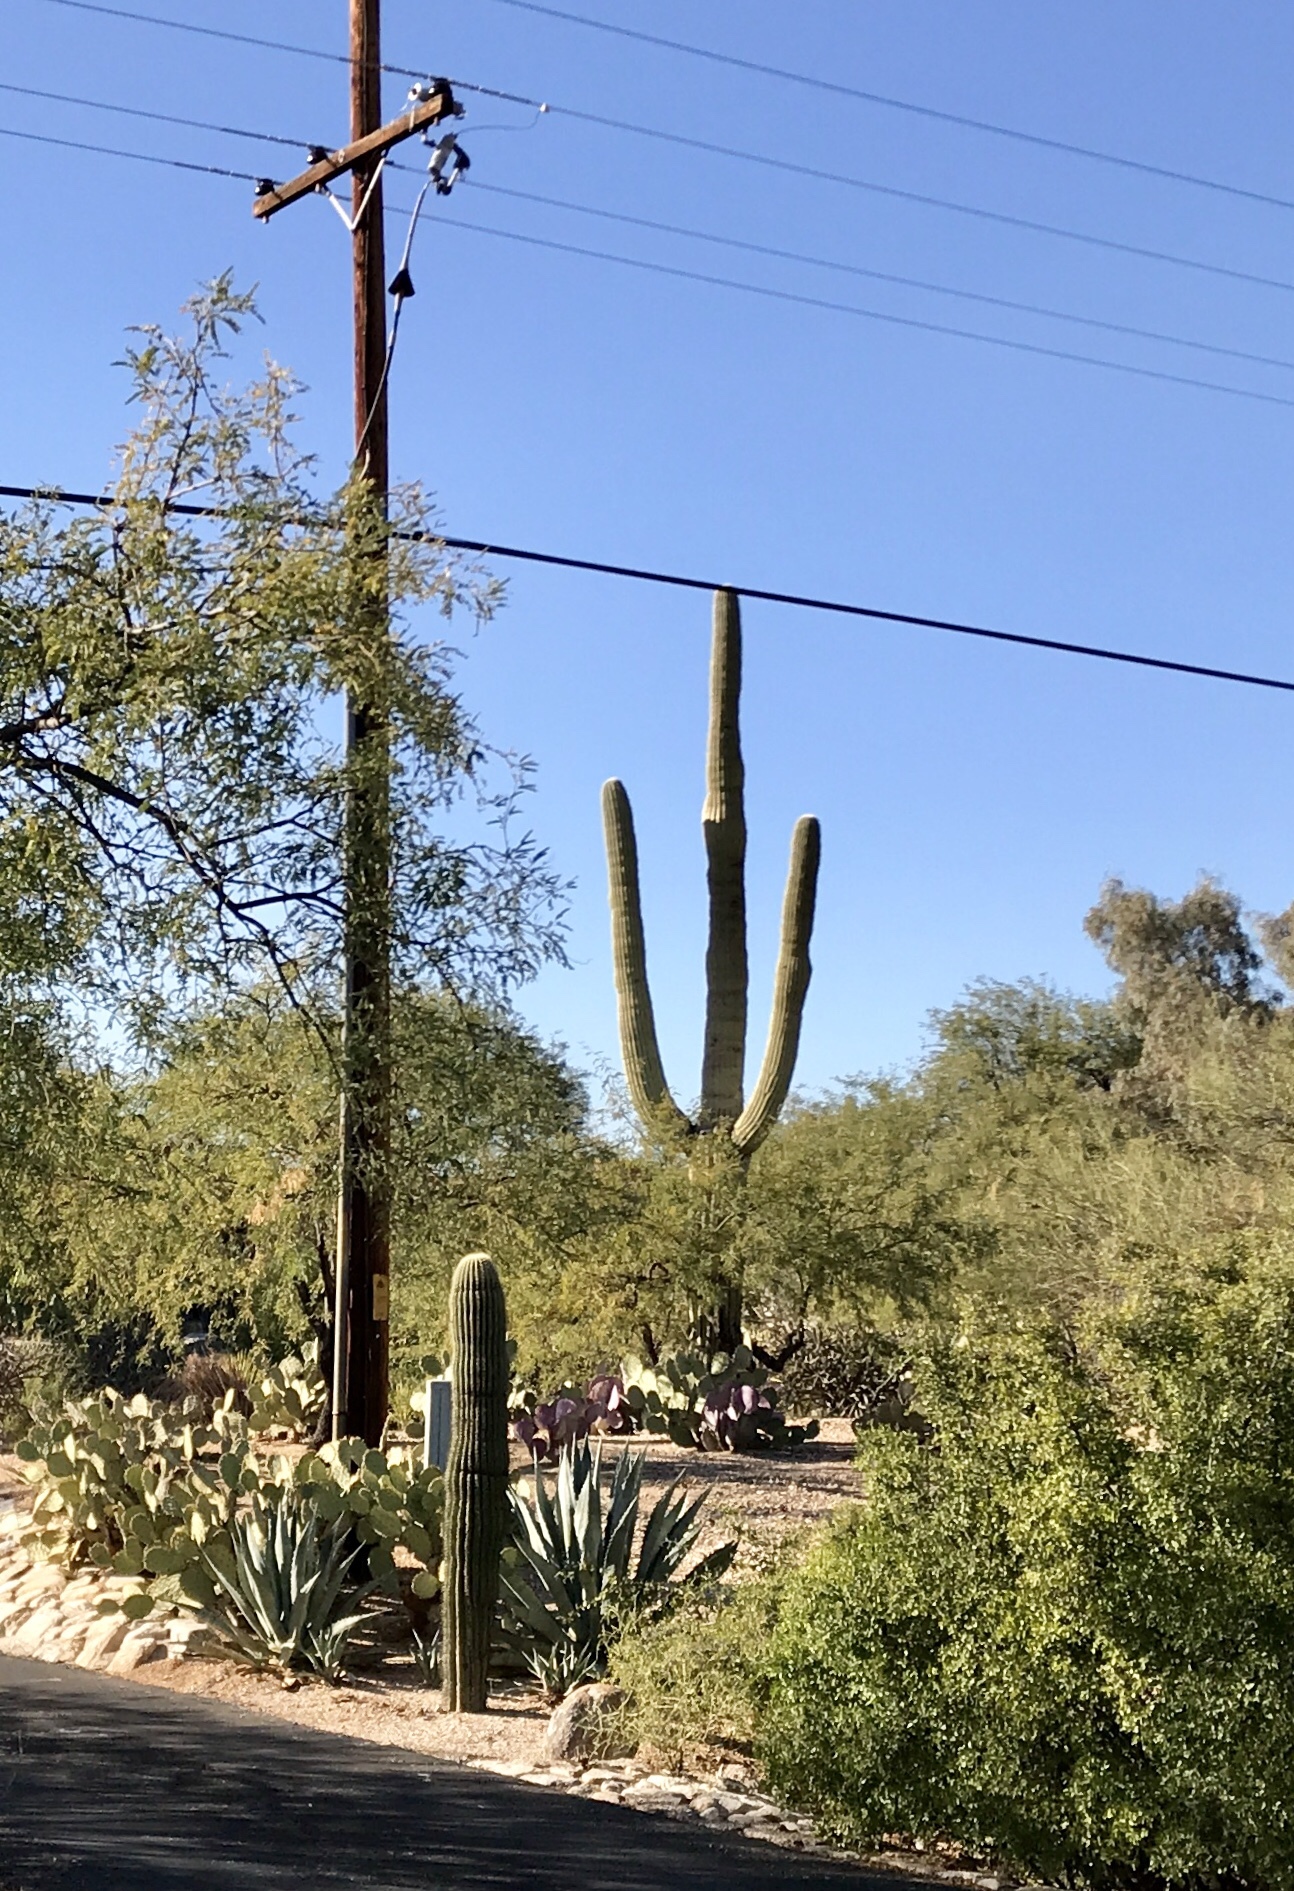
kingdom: Plantae
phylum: Tracheophyta
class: Magnoliopsida
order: Caryophyllales
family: Cactaceae
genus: Carnegiea
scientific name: Carnegiea gigantea
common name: Saguaro
